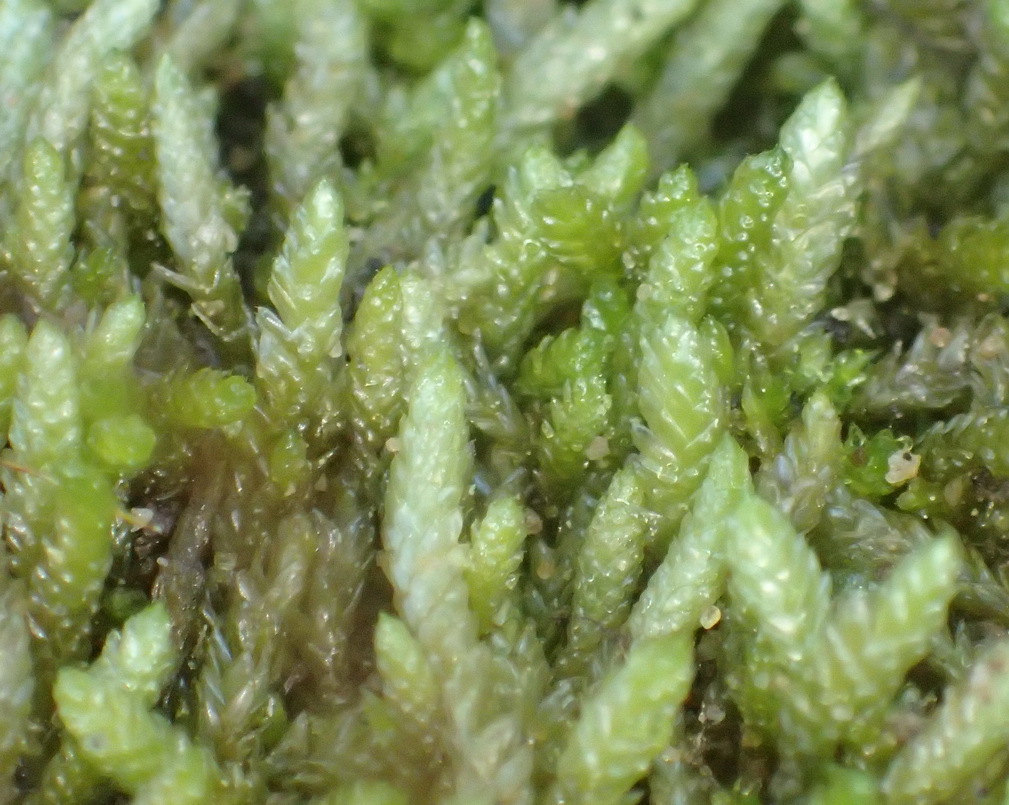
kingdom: Plantae
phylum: Bryophyta
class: Bryopsida
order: Hypnales
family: Brachytheciaceae
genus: Pseudoscleropodium
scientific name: Pseudoscleropodium purum
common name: Neat feather-moss
